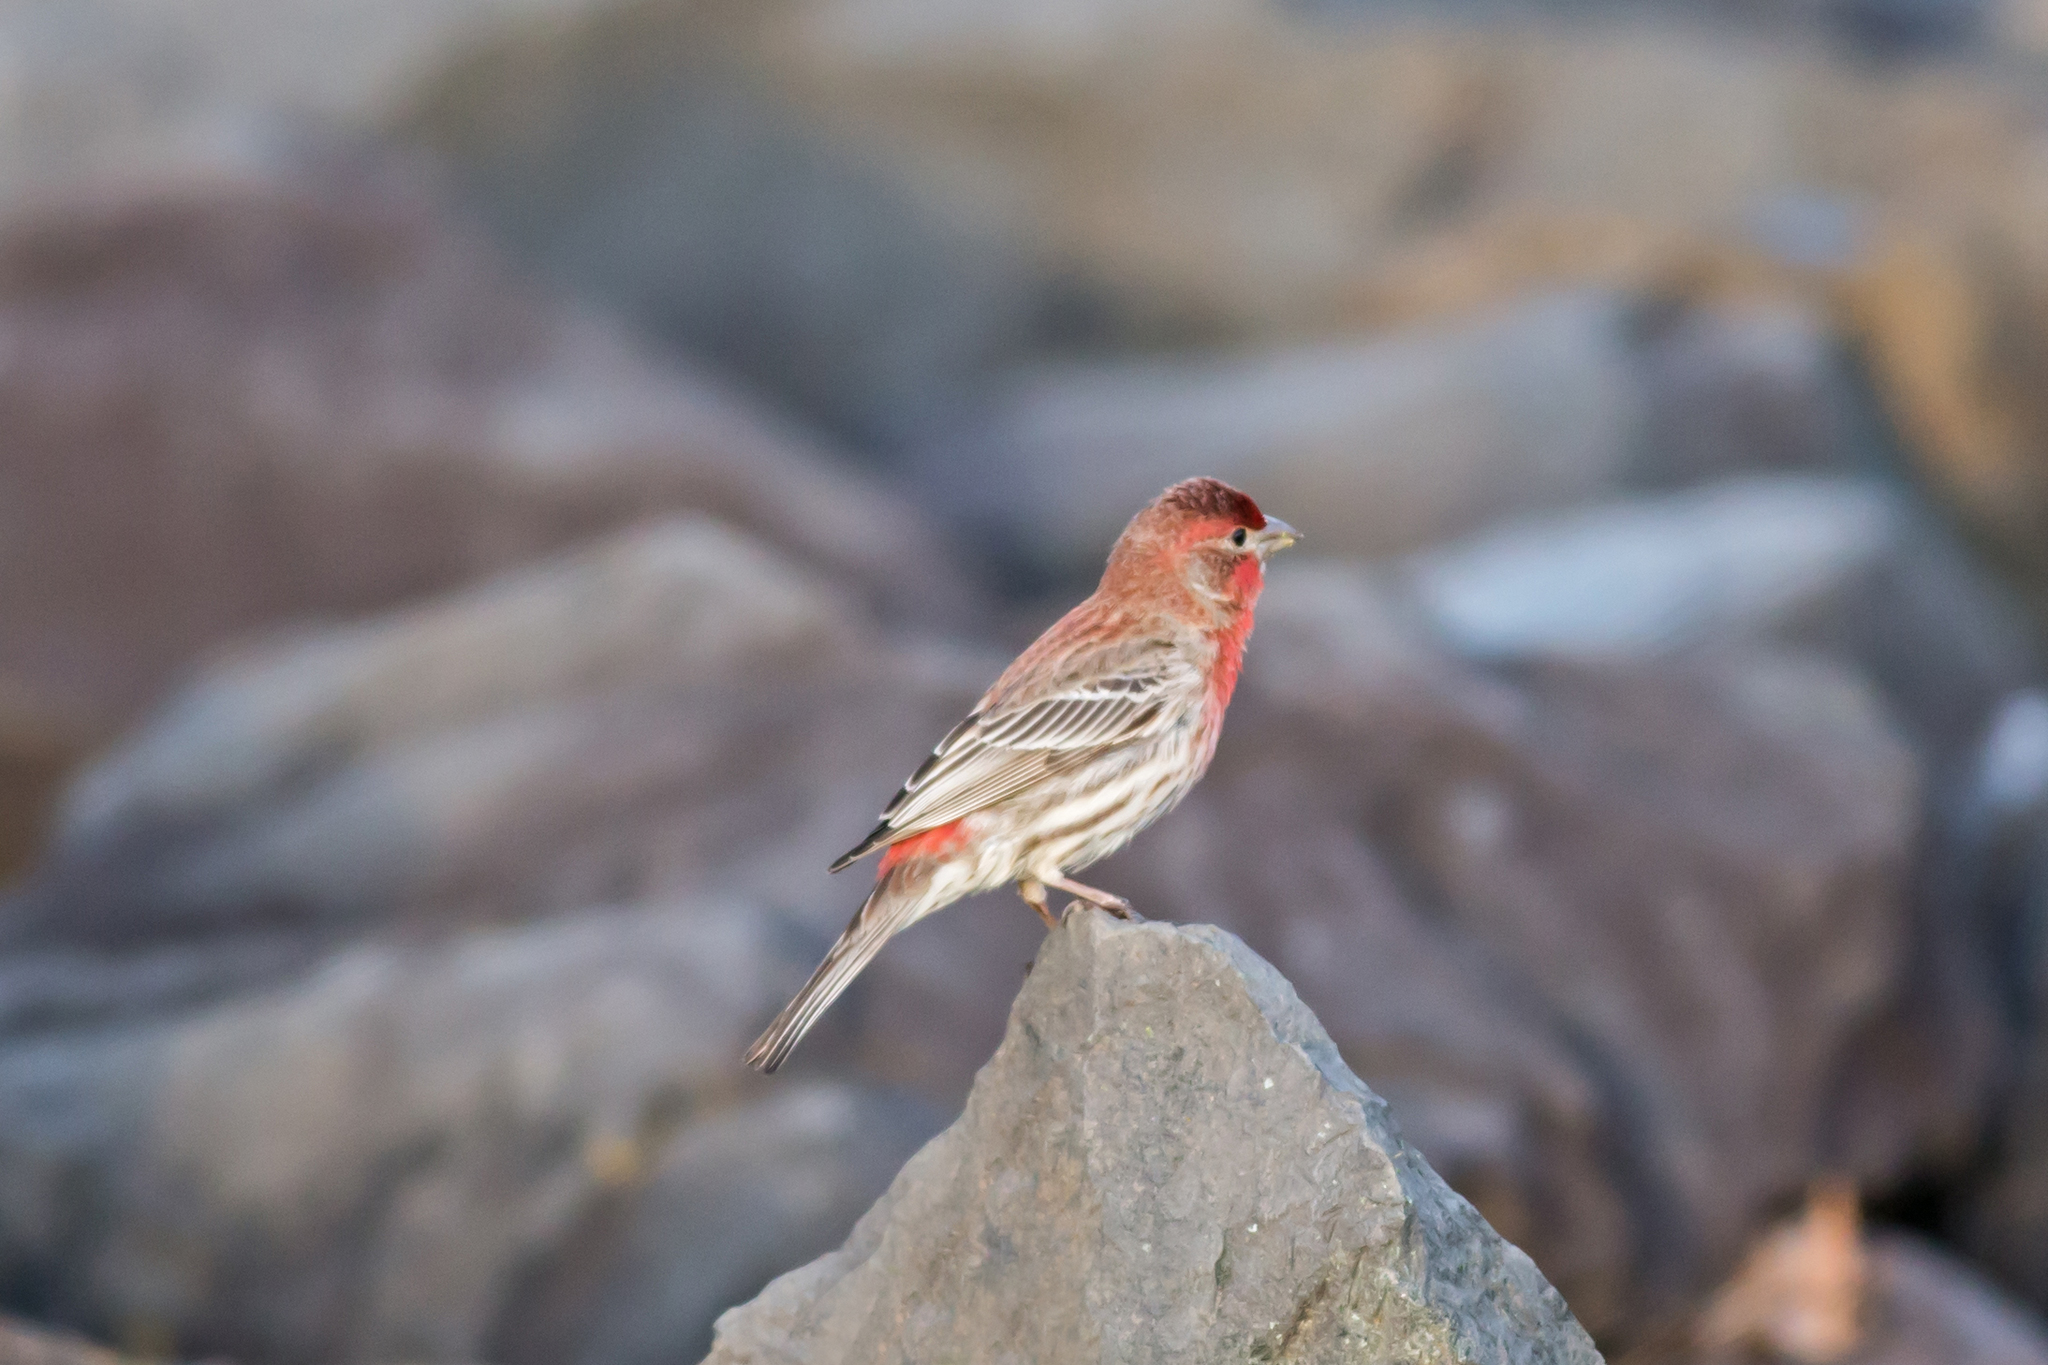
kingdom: Animalia
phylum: Chordata
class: Aves
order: Passeriformes
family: Fringillidae
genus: Haemorhous
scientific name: Haemorhous mexicanus
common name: House finch
